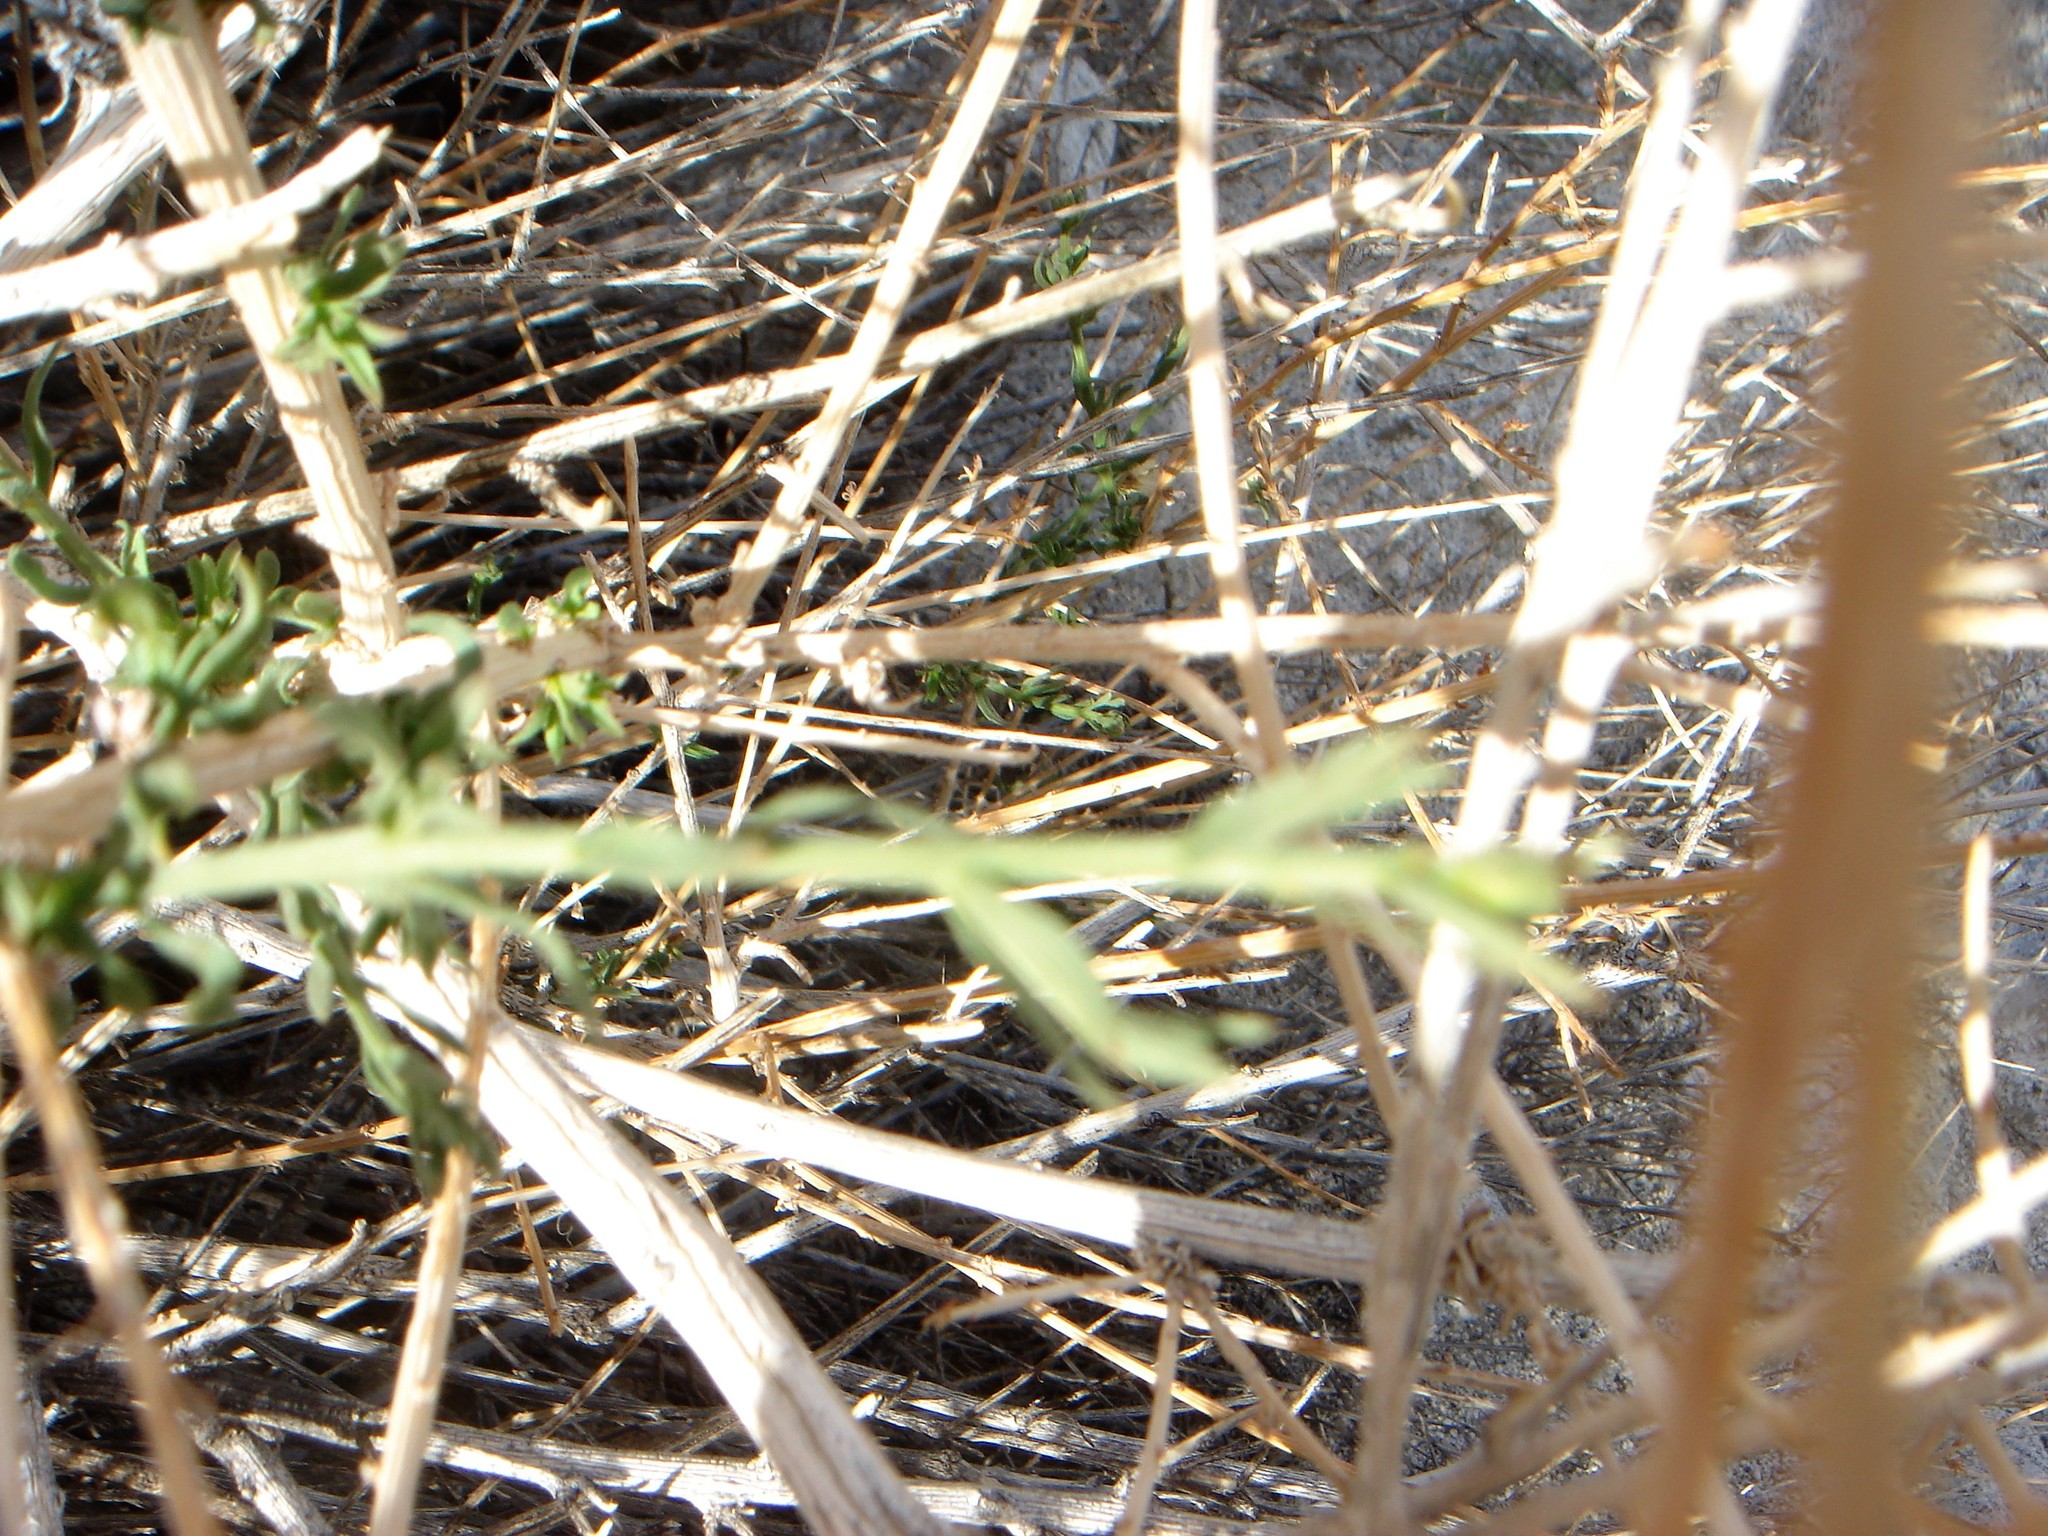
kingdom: Plantae
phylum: Tracheophyta
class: Magnoliopsida
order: Asterales
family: Asteraceae
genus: Baccharis
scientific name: Baccharis brachyphylla
